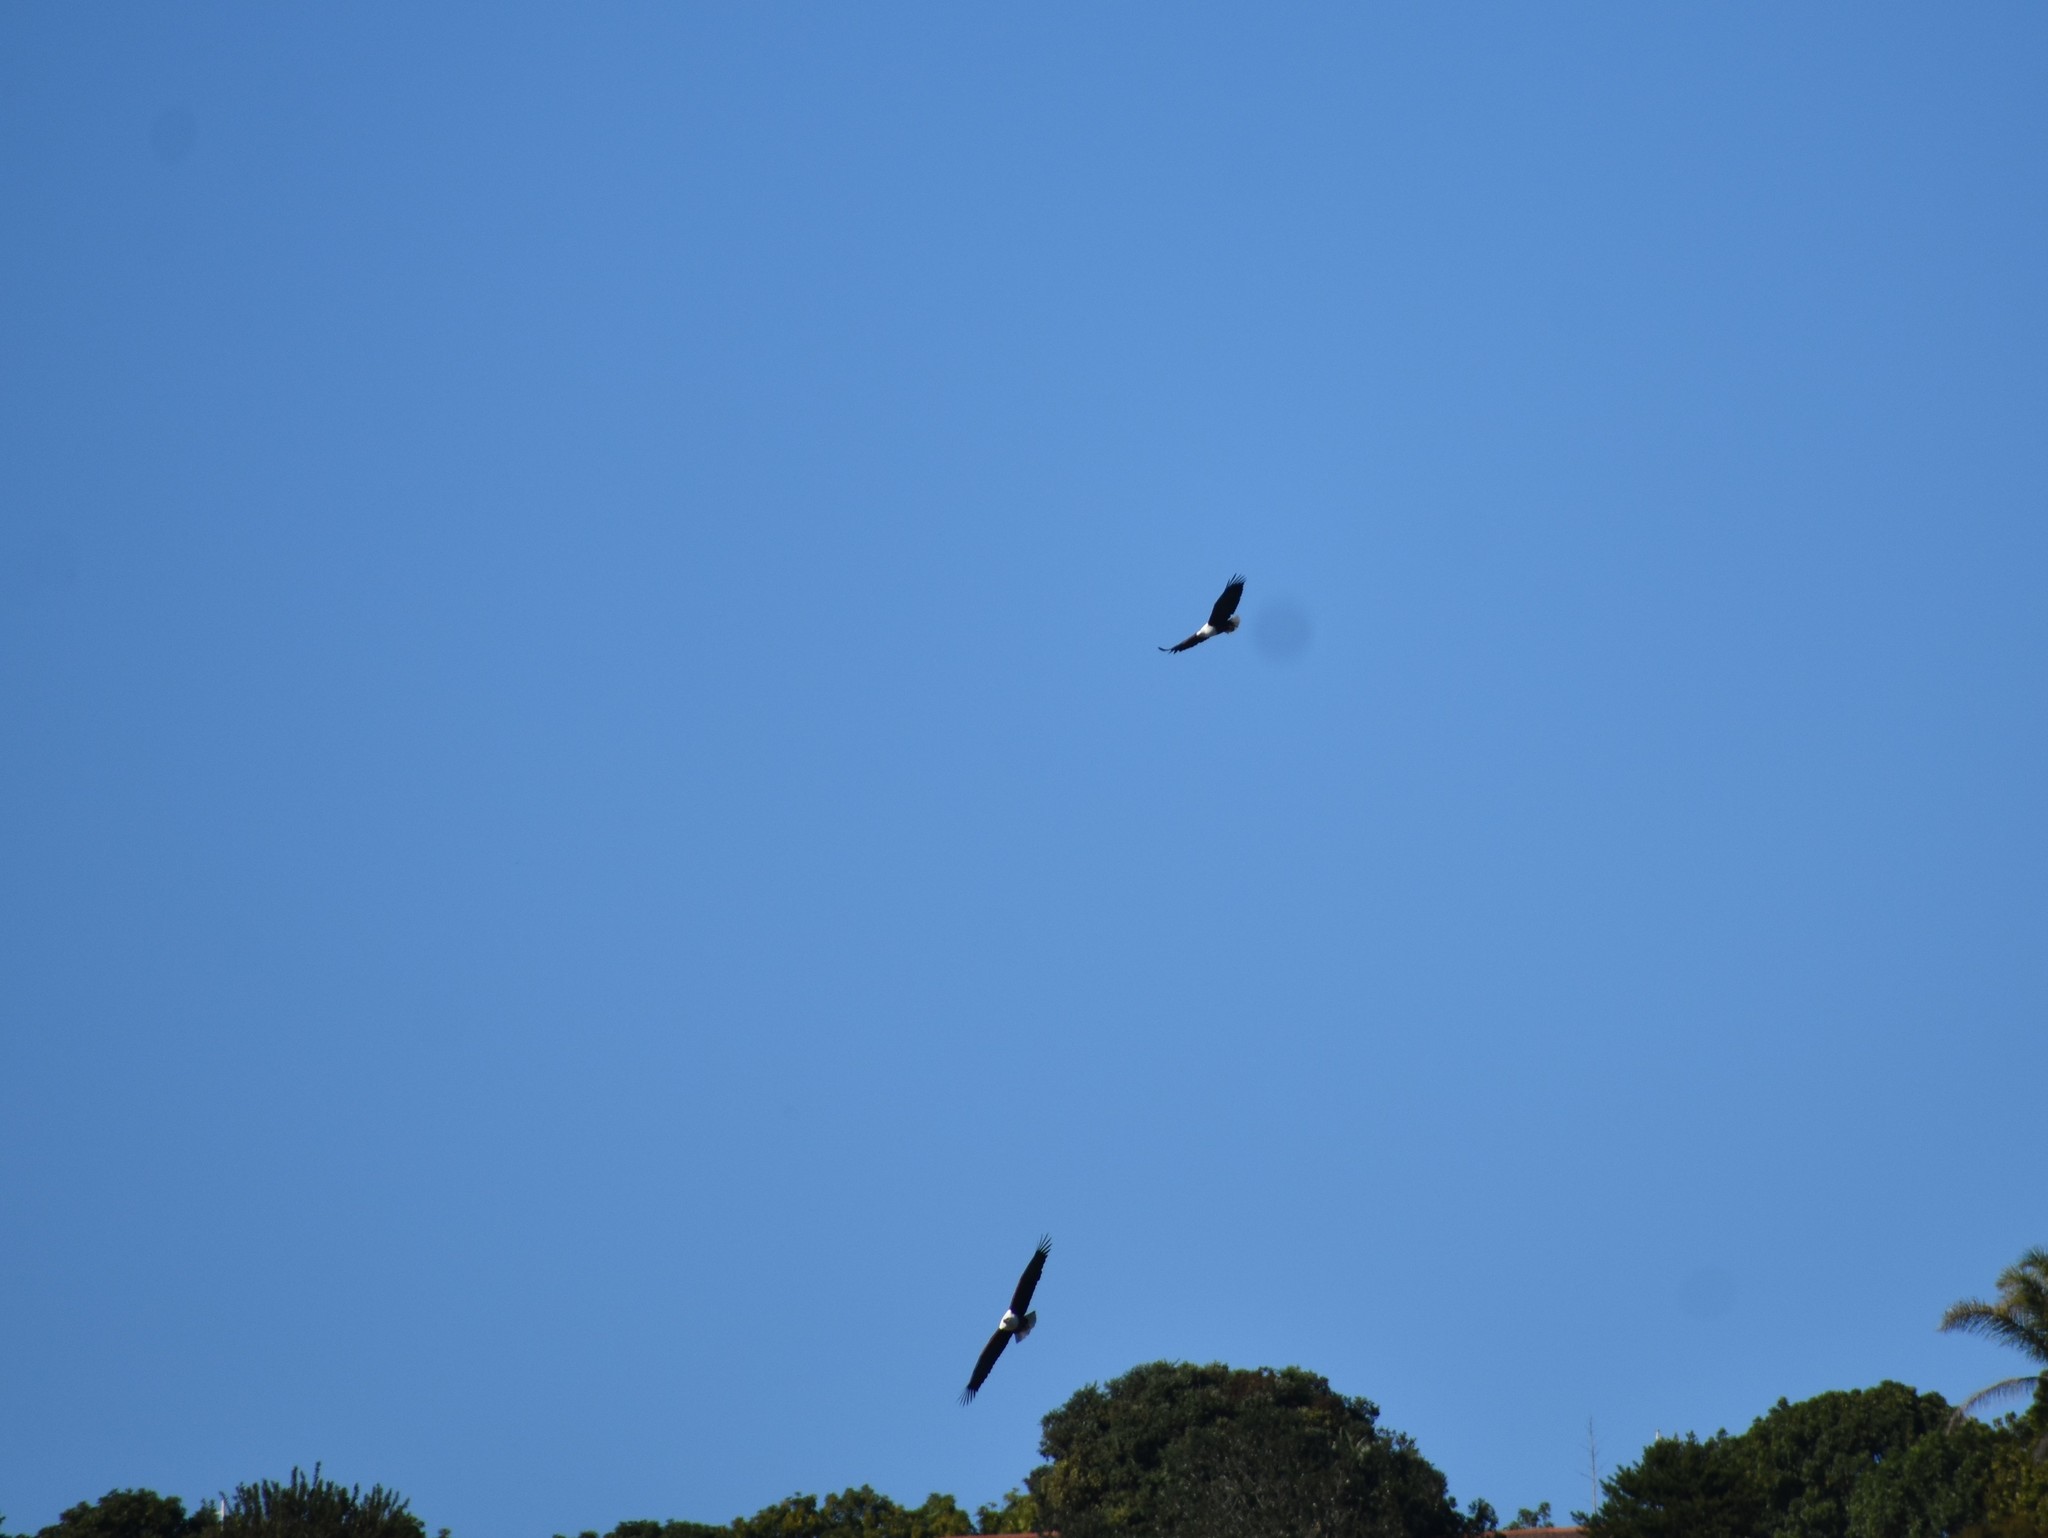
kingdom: Animalia
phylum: Chordata
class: Aves
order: Accipitriformes
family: Accipitridae
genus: Haliaeetus
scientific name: Haliaeetus vocifer
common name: African fish eagle
